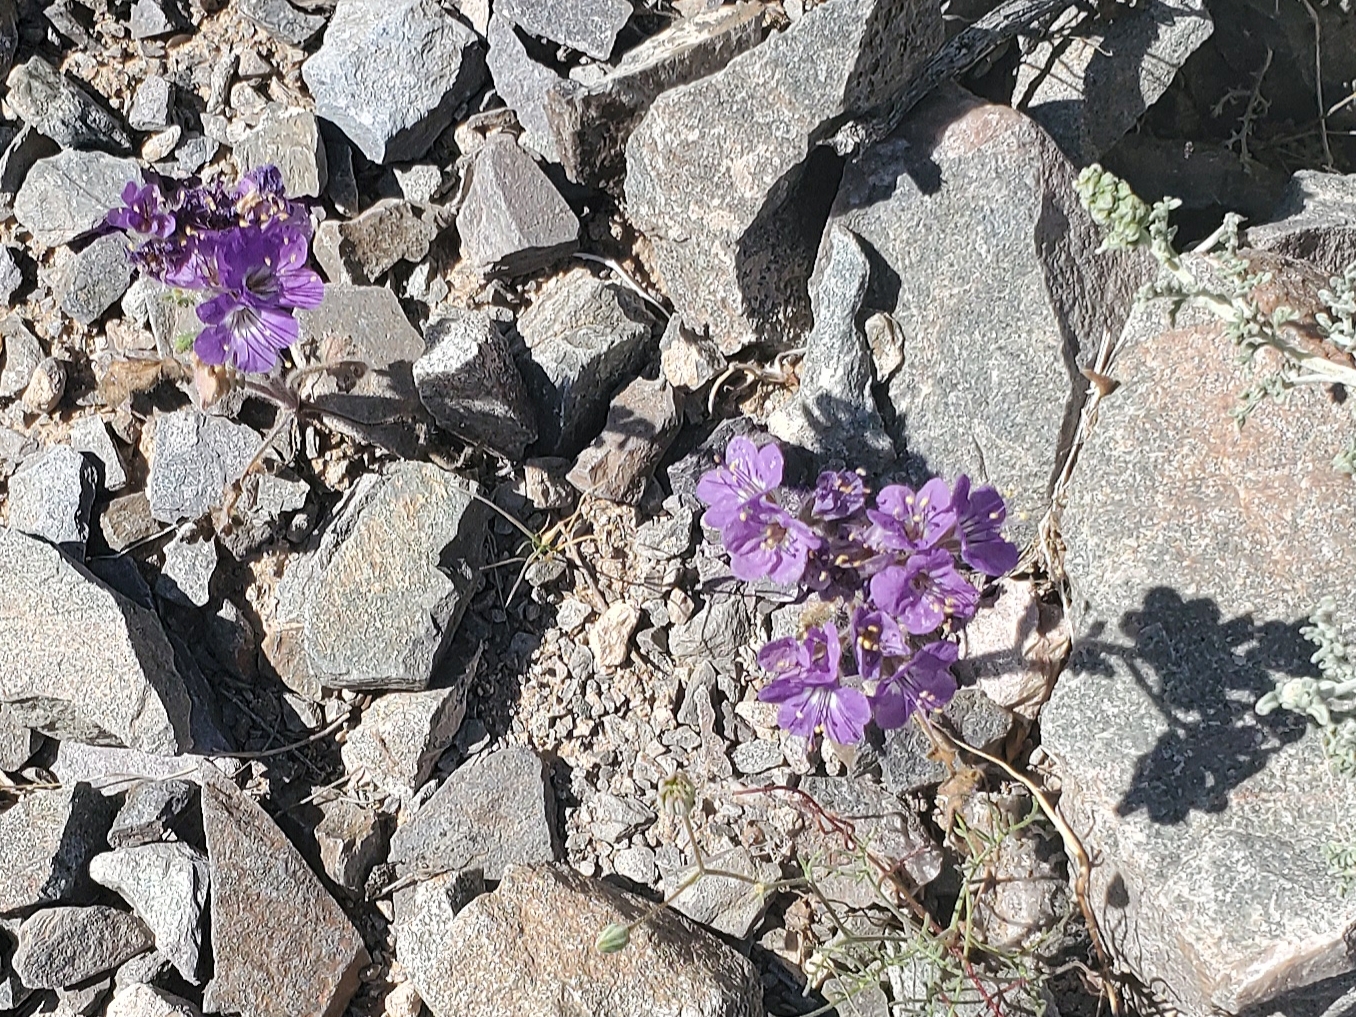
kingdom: Plantae
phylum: Tracheophyta
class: Magnoliopsida
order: Boraginales
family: Hydrophyllaceae
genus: Phacelia
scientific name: Phacelia crenulata
